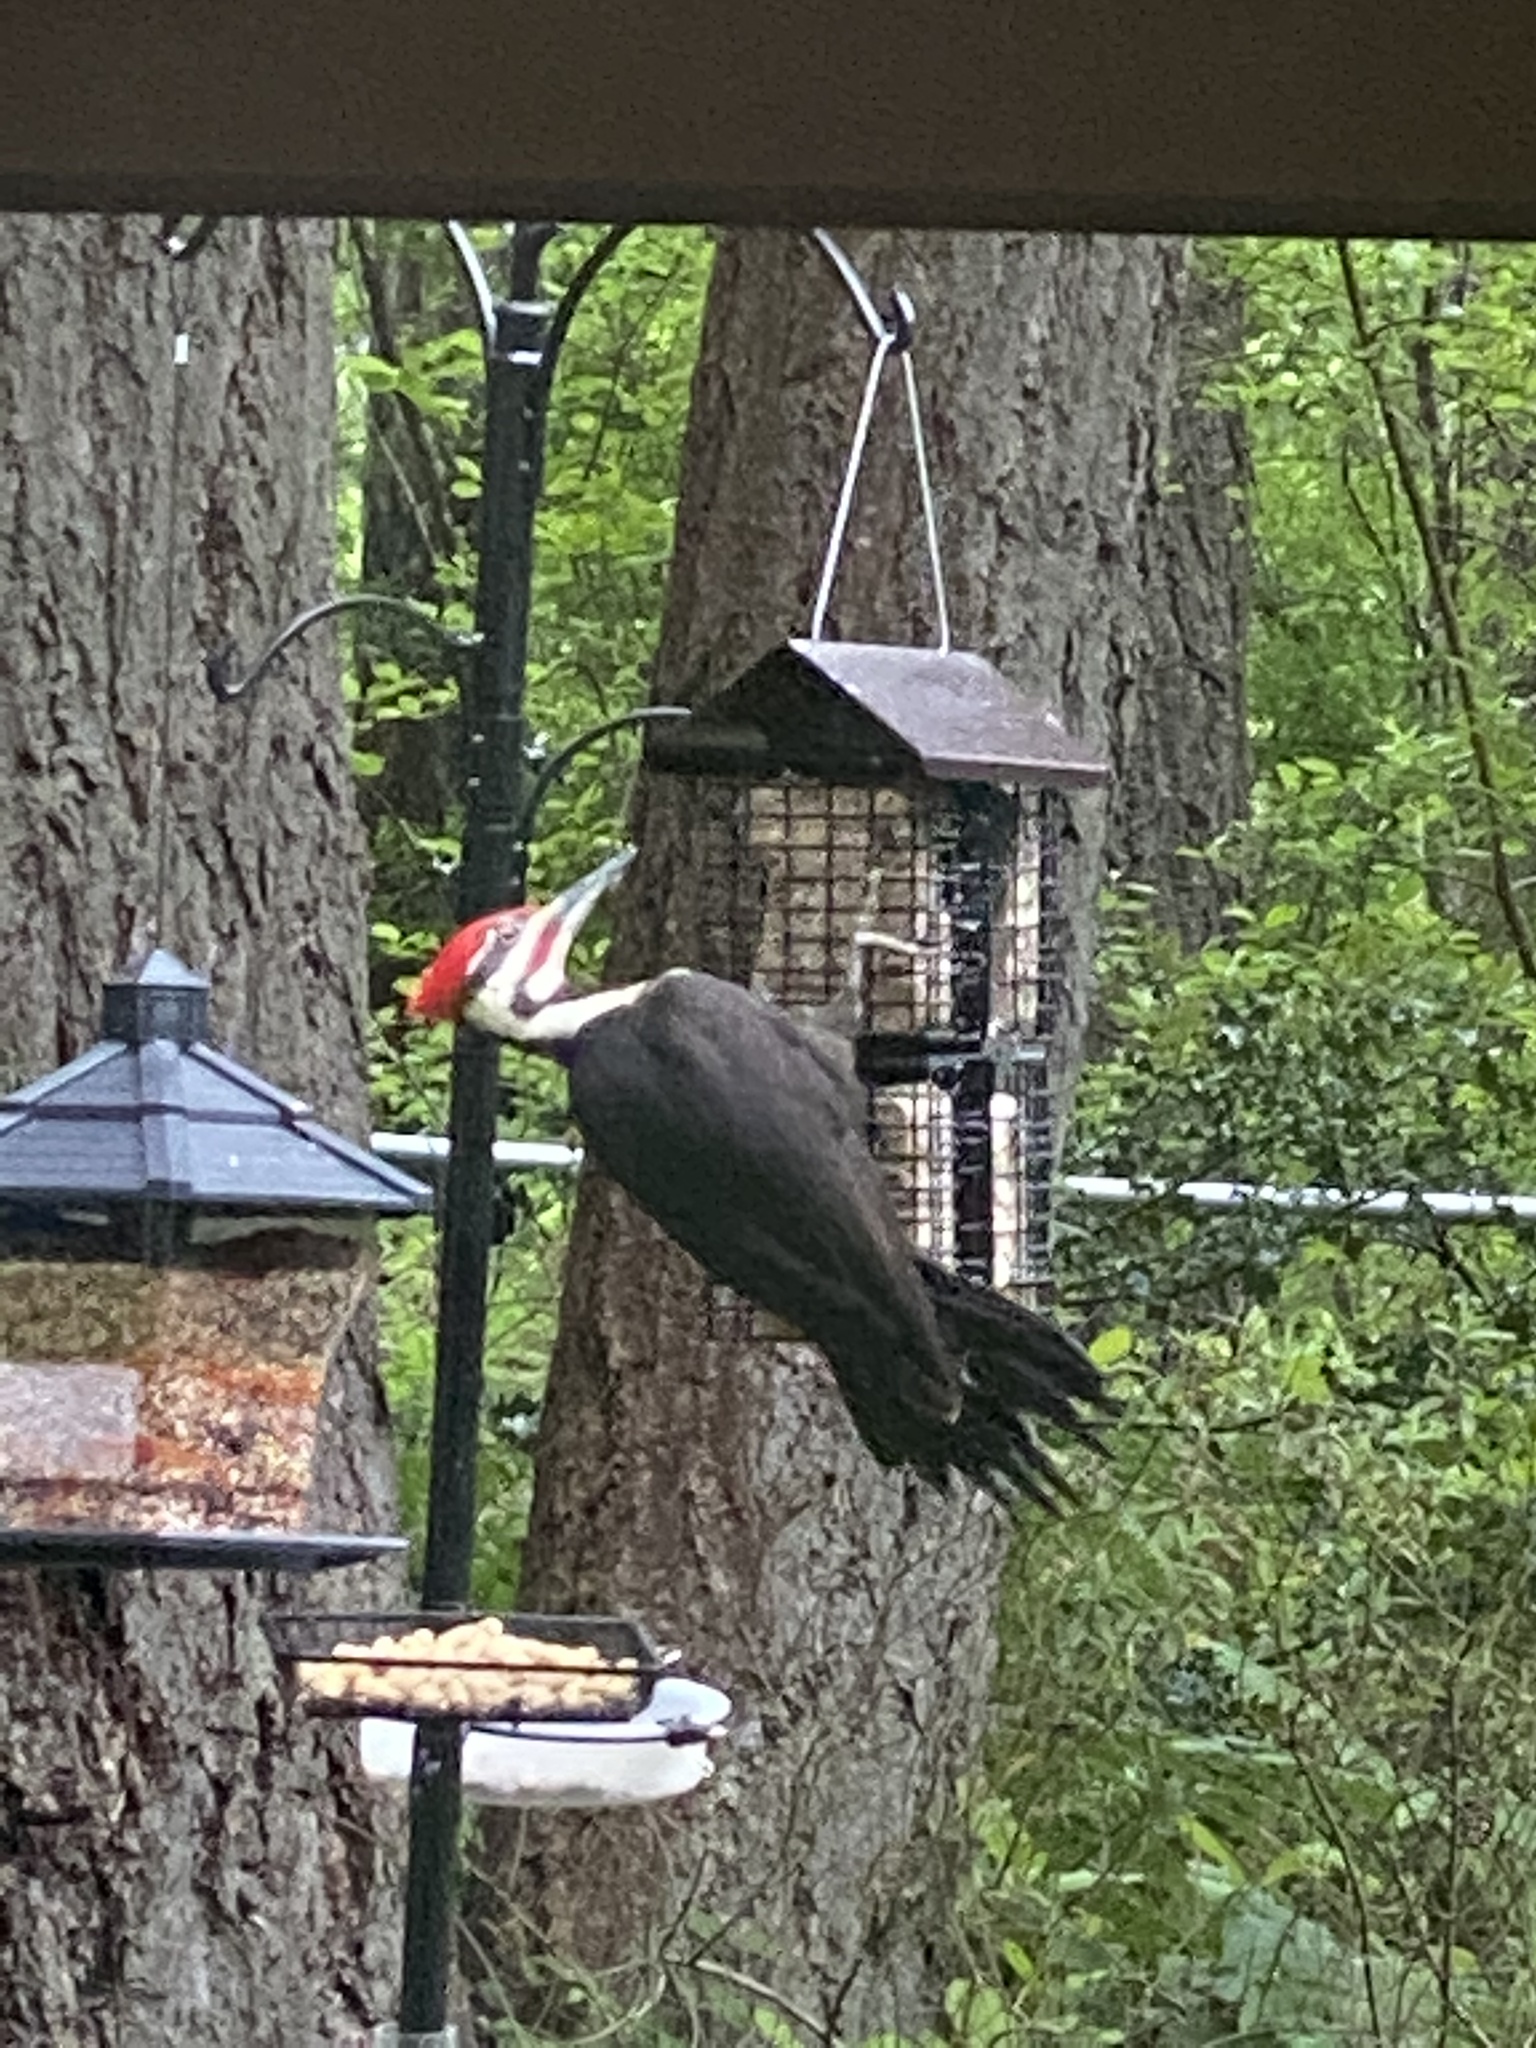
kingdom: Animalia
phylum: Chordata
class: Aves
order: Piciformes
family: Picidae
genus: Dryocopus
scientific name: Dryocopus pileatus
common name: Pileated woodpecker
